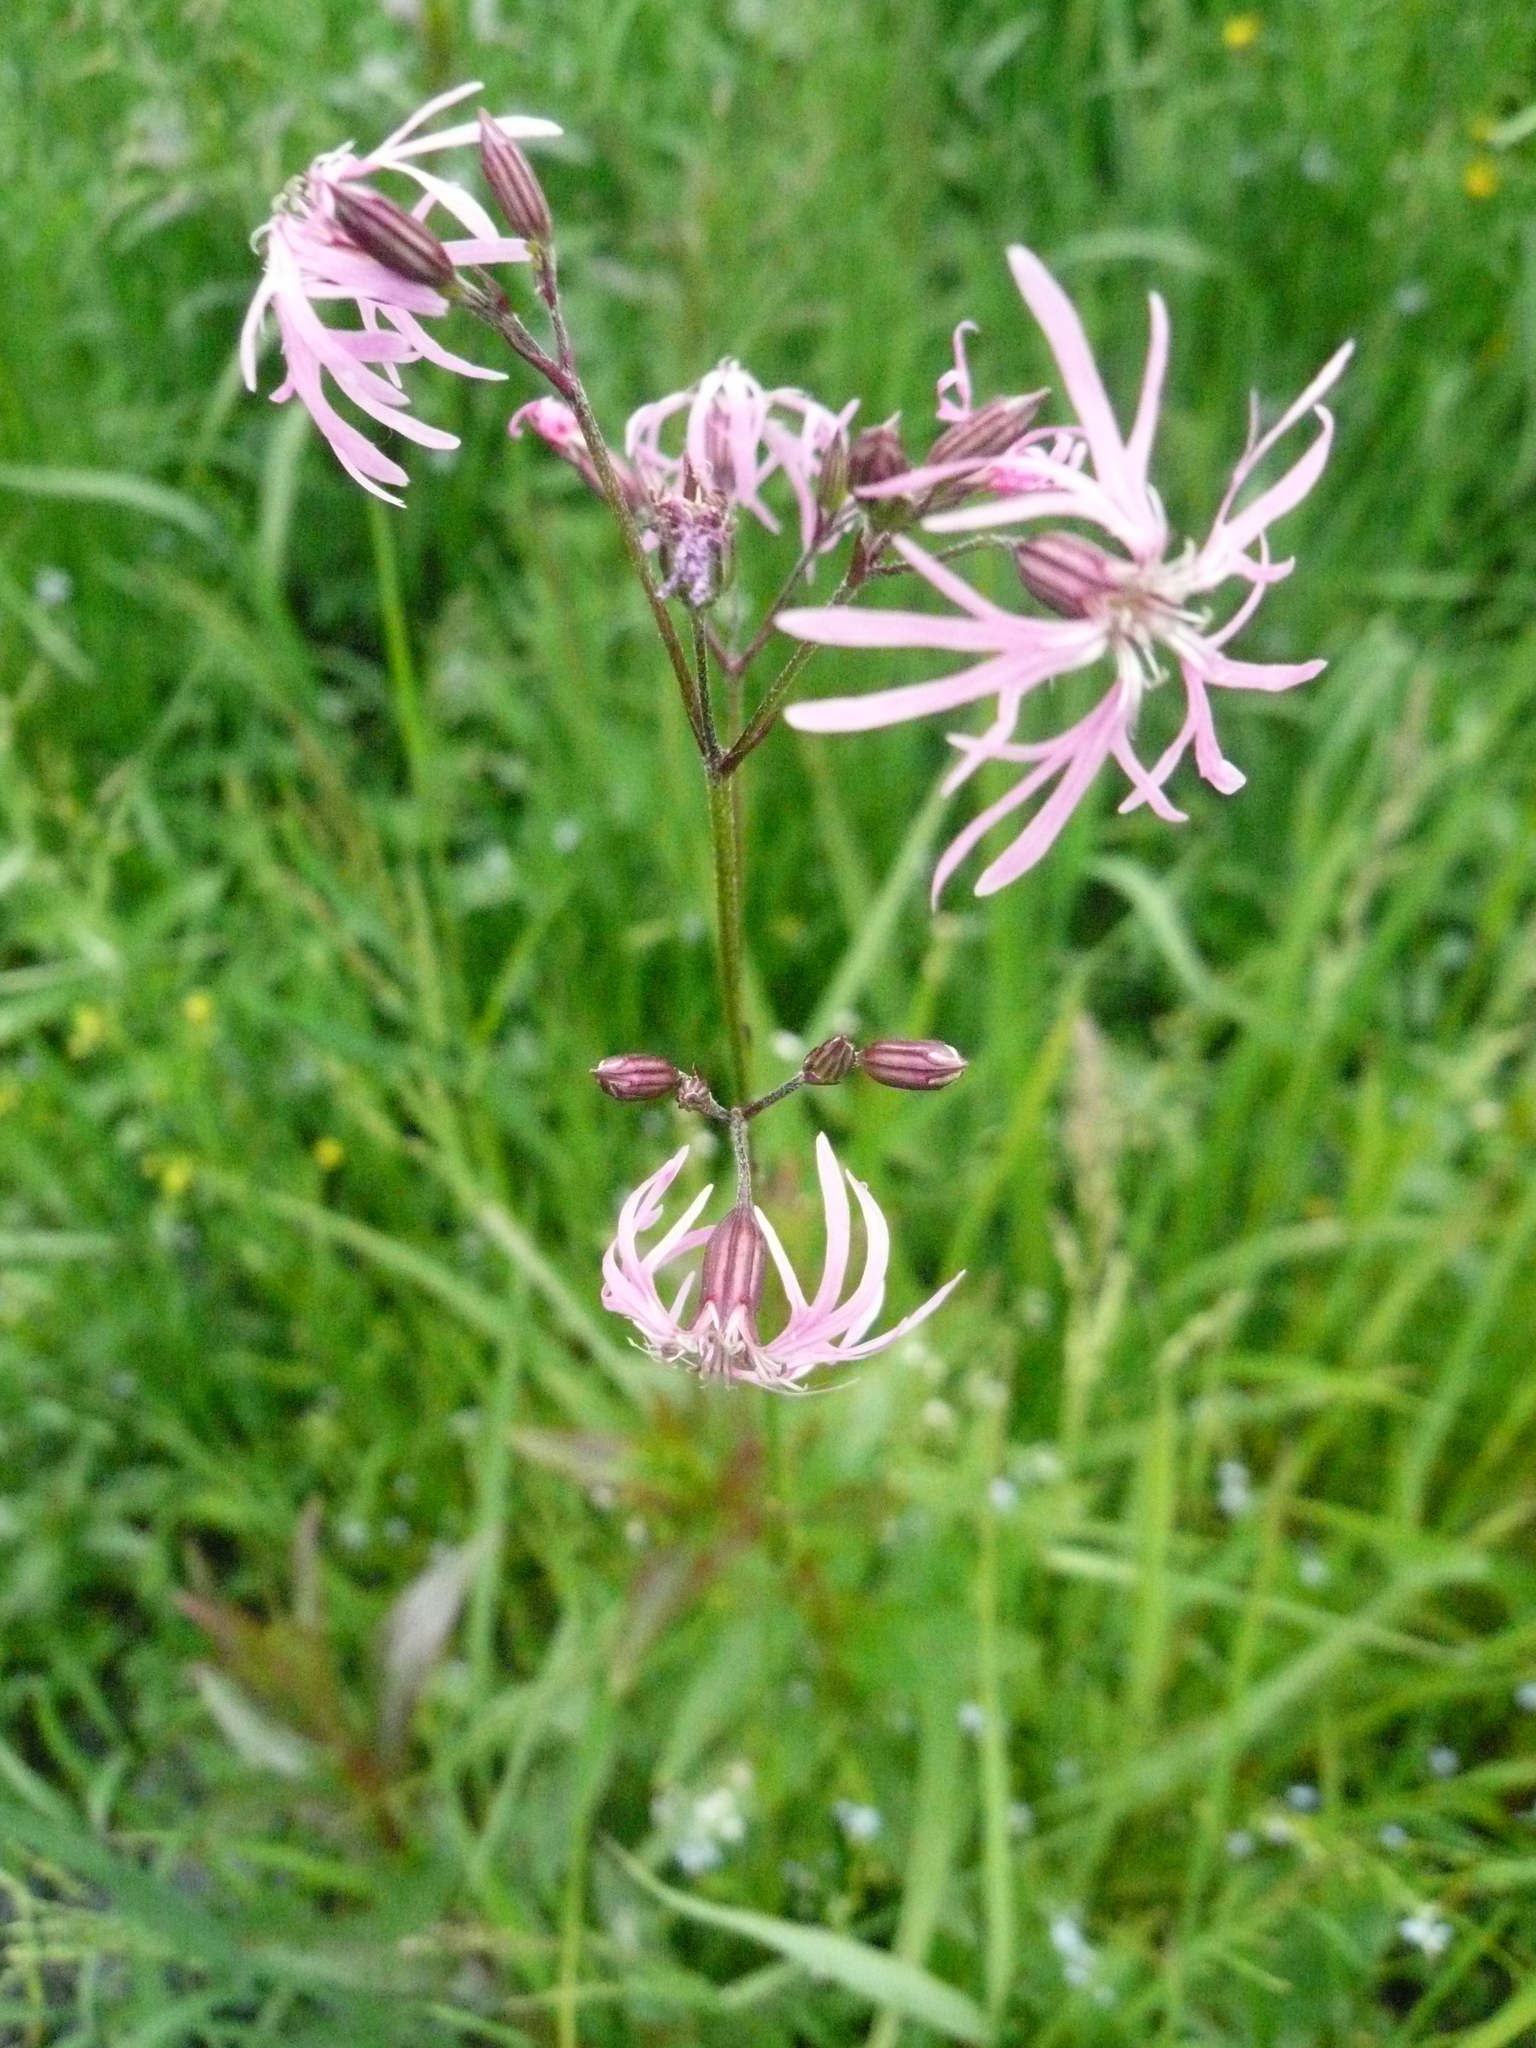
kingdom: Plantae
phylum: Tracheophyta
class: Magnoliopsida
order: Caryophyllales
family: Caryophyllaceae
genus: Silene
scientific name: Silene flos-cuculi
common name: Ragged-robin
